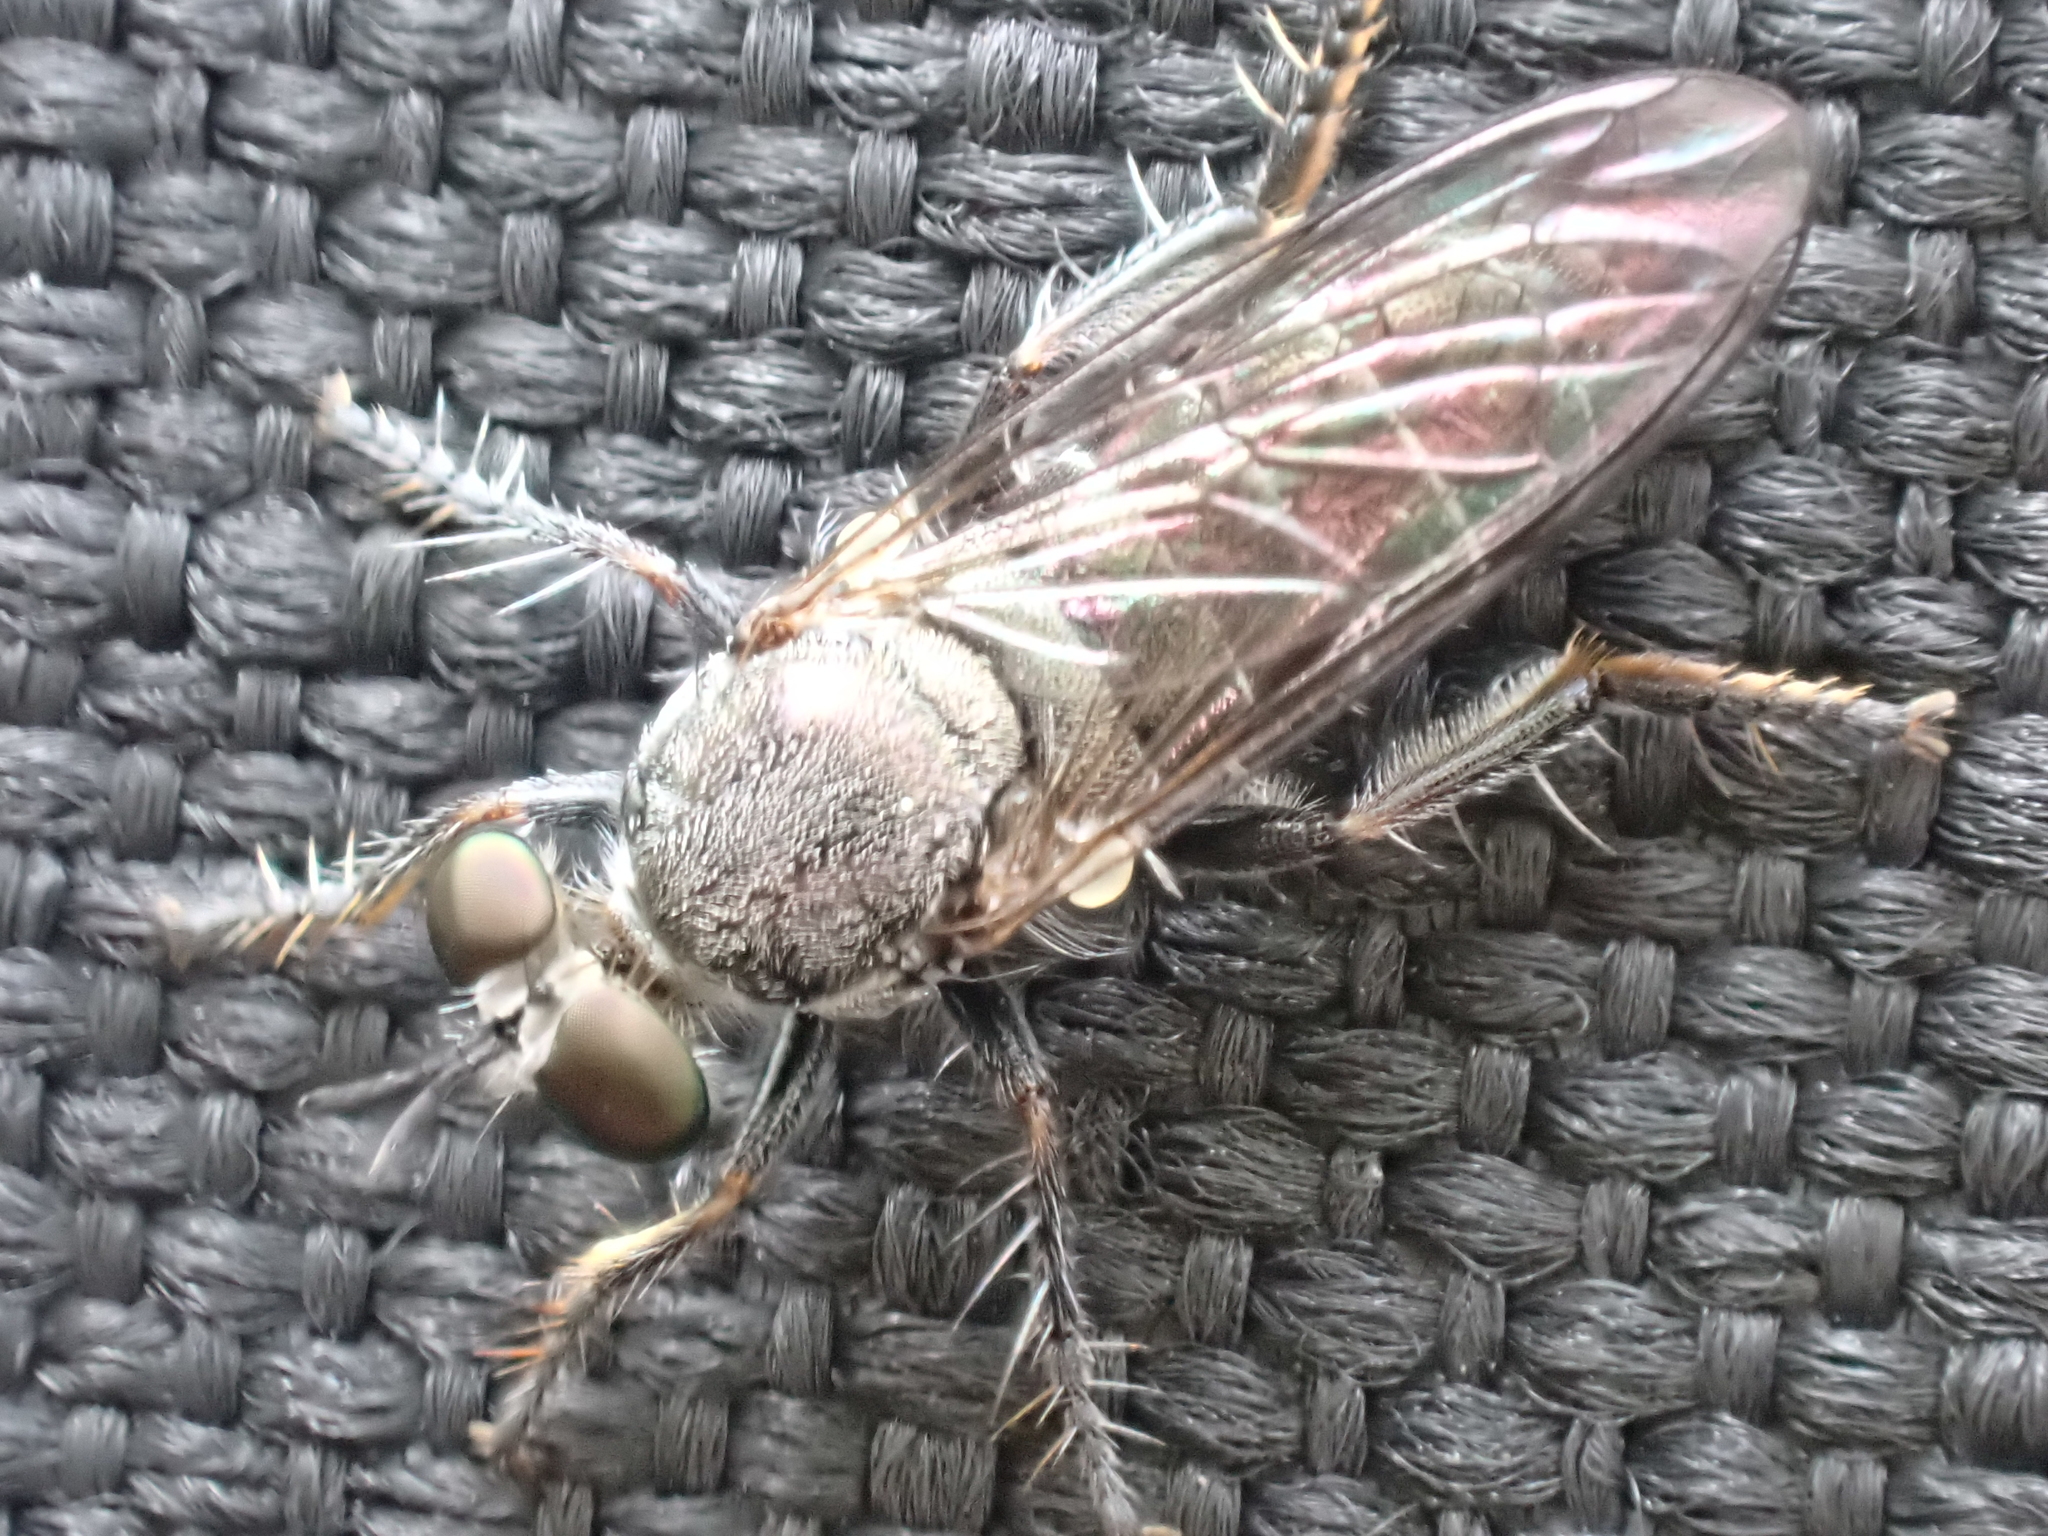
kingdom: Animalia
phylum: Arthropoda
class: Insecta
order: Diptera
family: Asilidae
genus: Atomosia
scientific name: Atomosia puella
